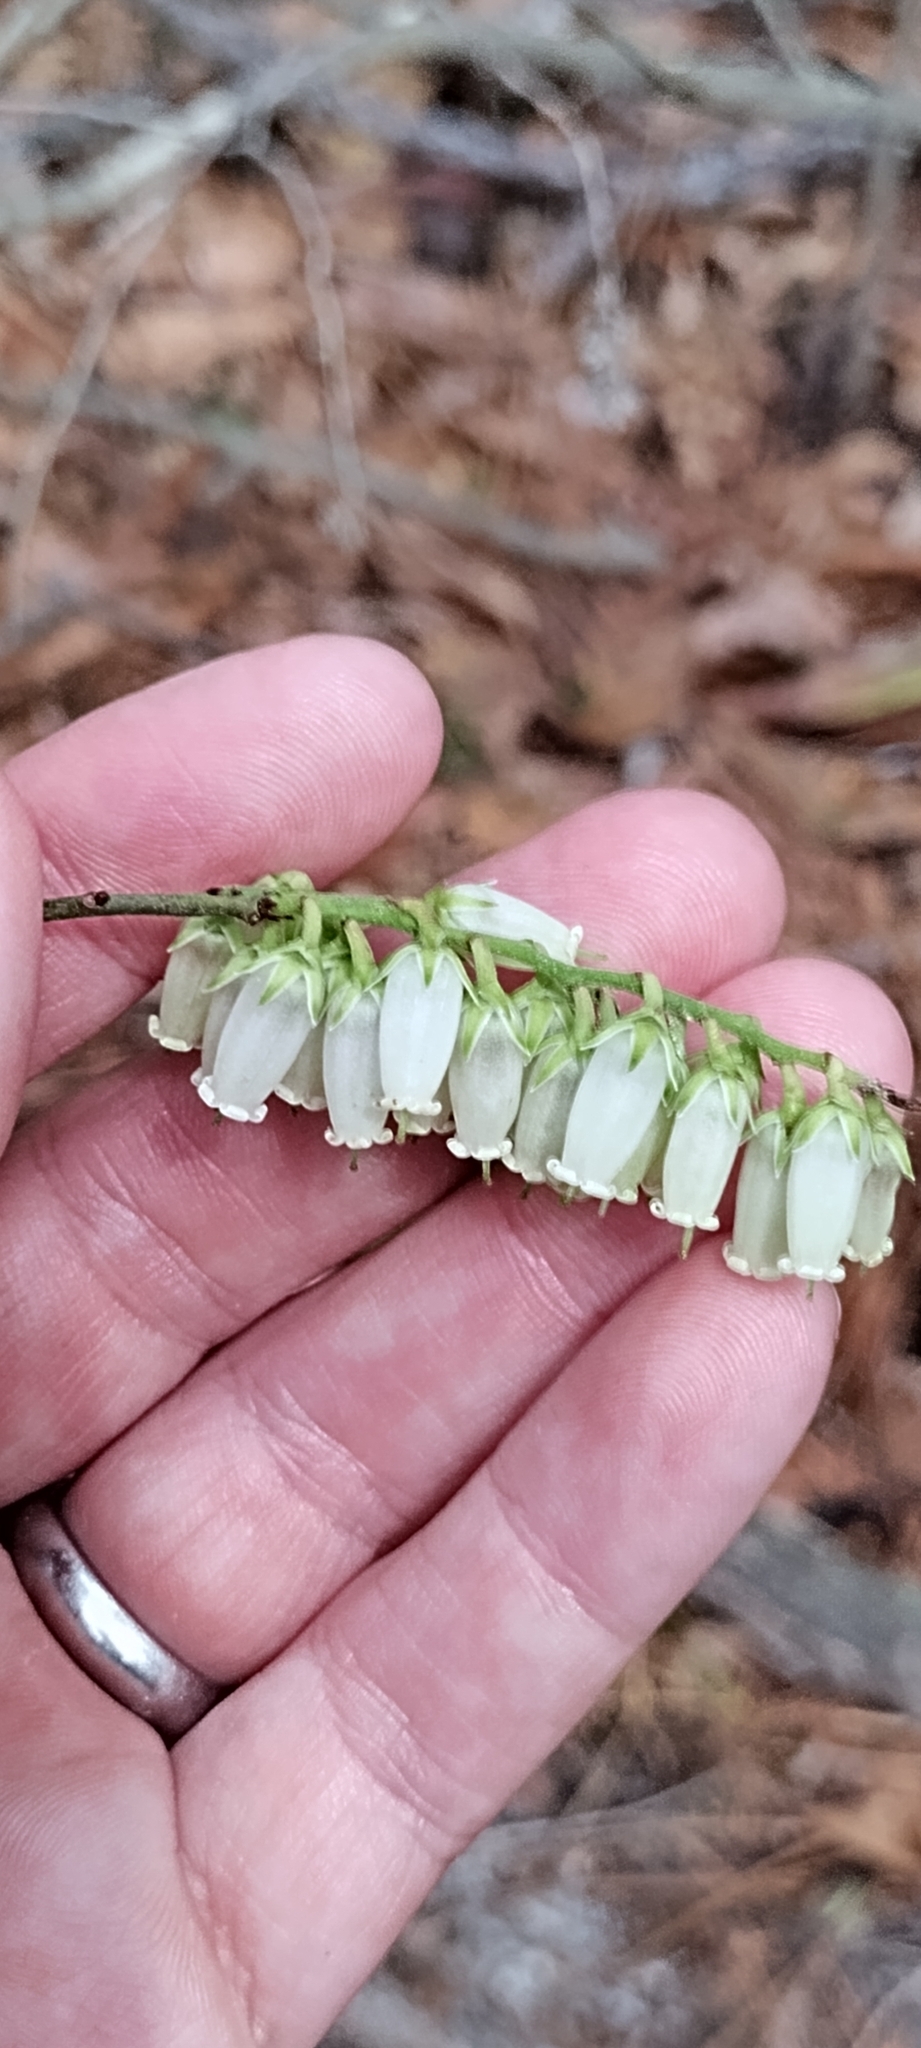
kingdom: Plantae
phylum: Tracheophyta
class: Magnoliopsida
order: Ericales
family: Ericaceae
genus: Eubotrys
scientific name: Eubotrys racemosa
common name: Fetterbush
